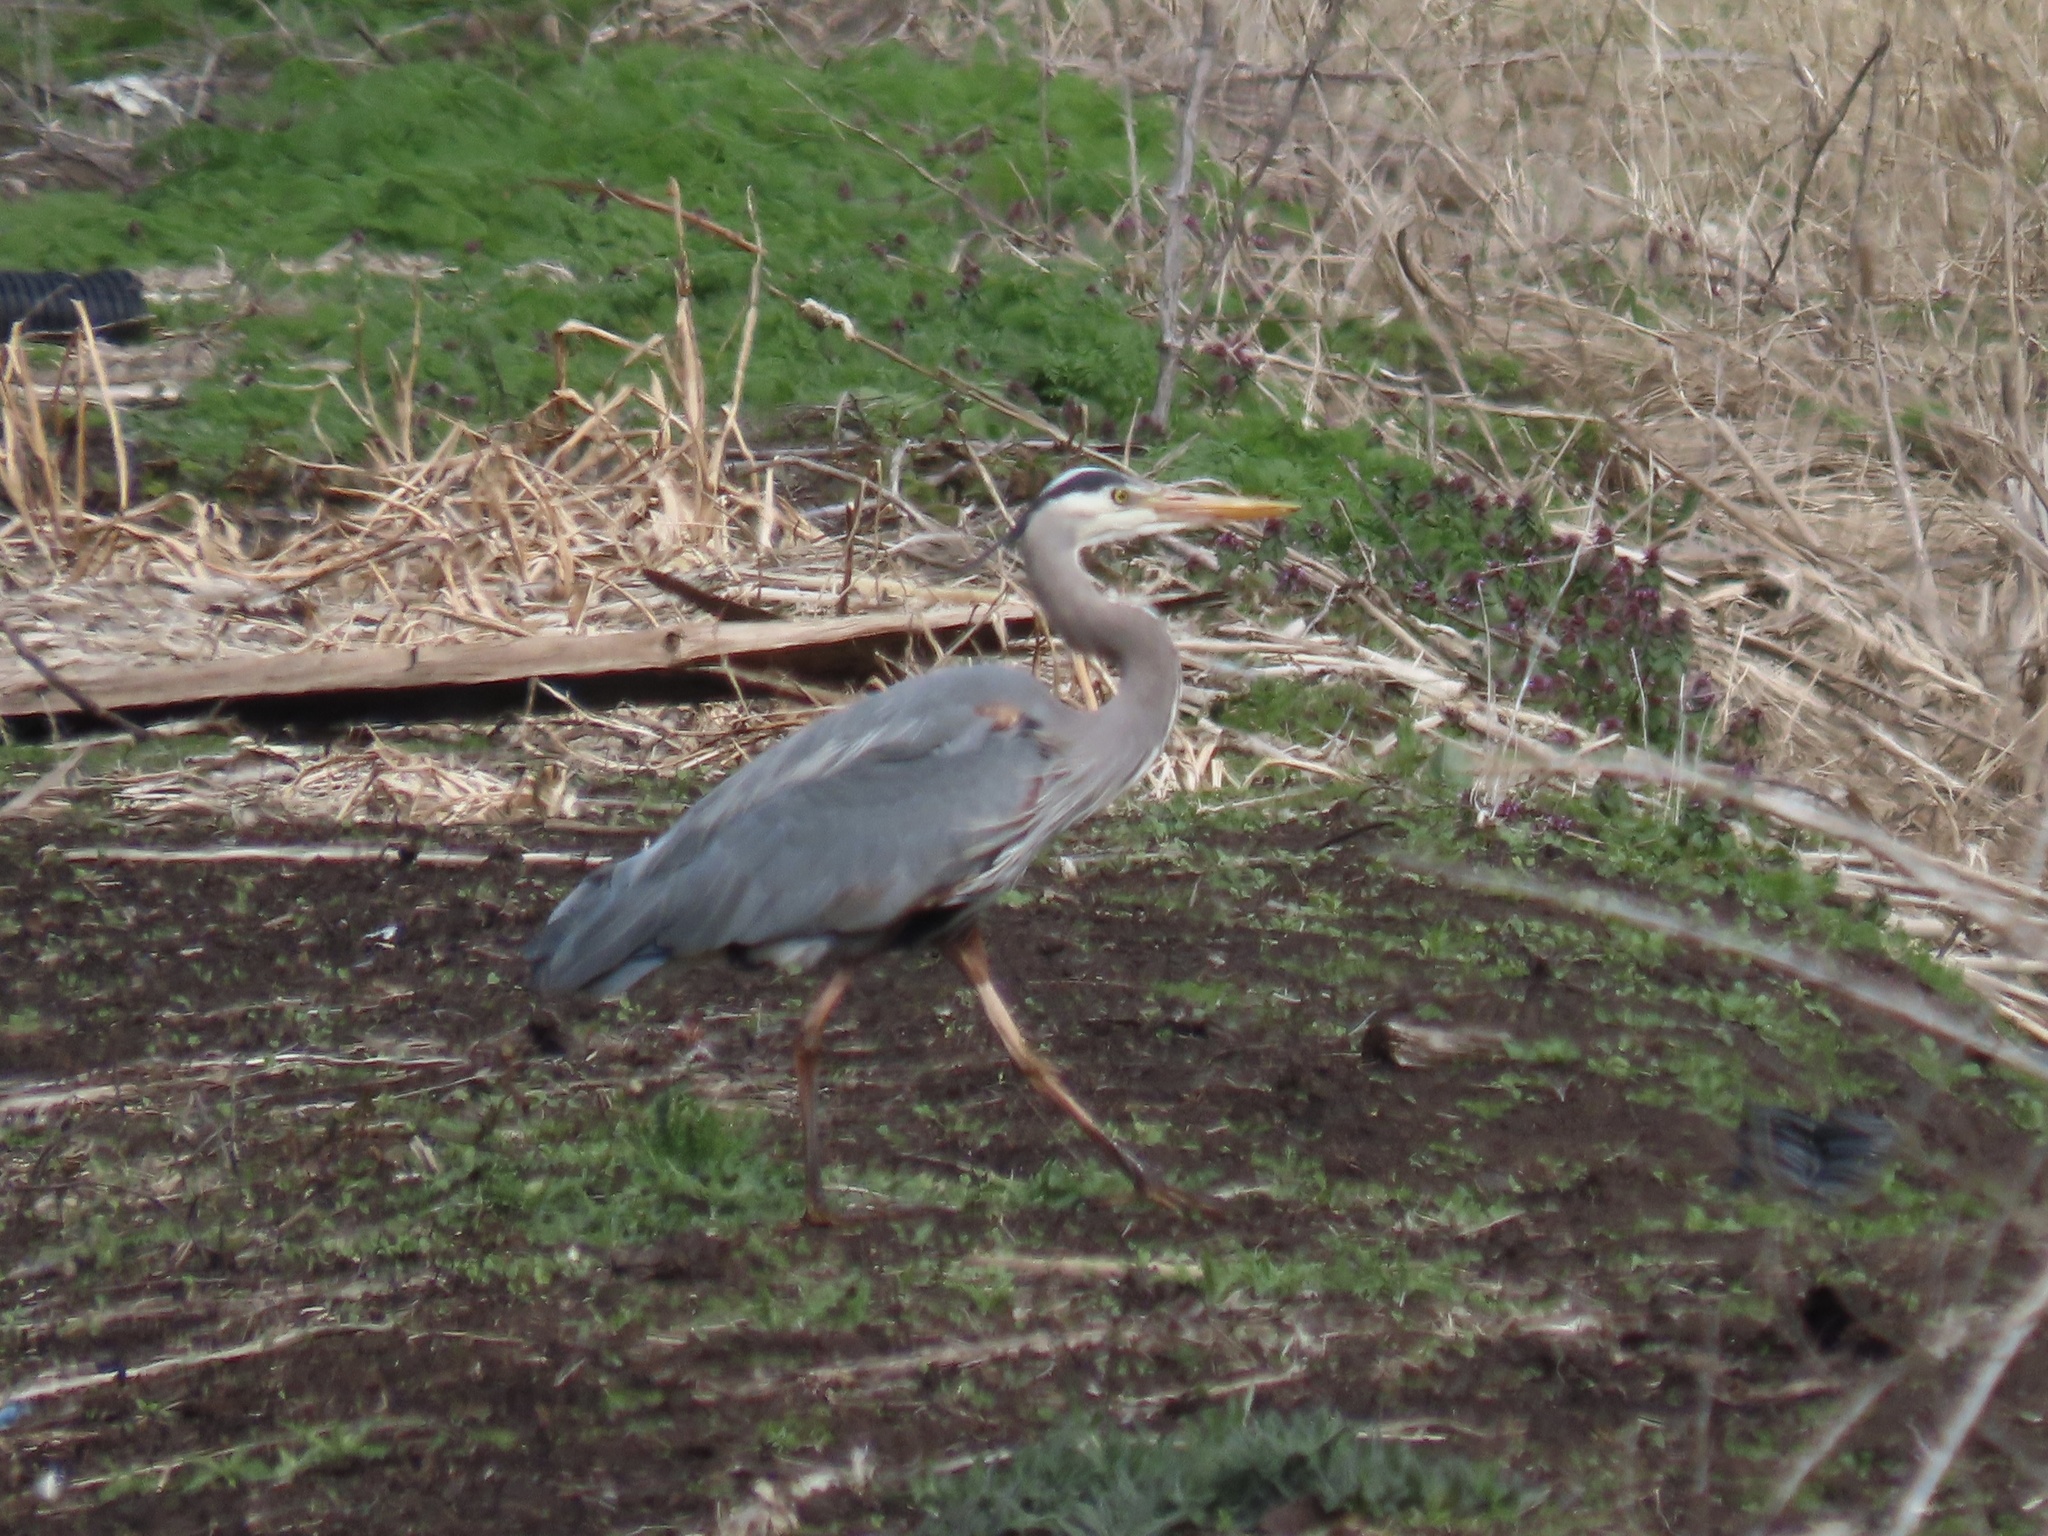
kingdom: Animalia
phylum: Chordata
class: Aves
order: Pelecaniformes
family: Ardeidae
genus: Ardea
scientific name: Ardea herodias
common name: Great blue heron
